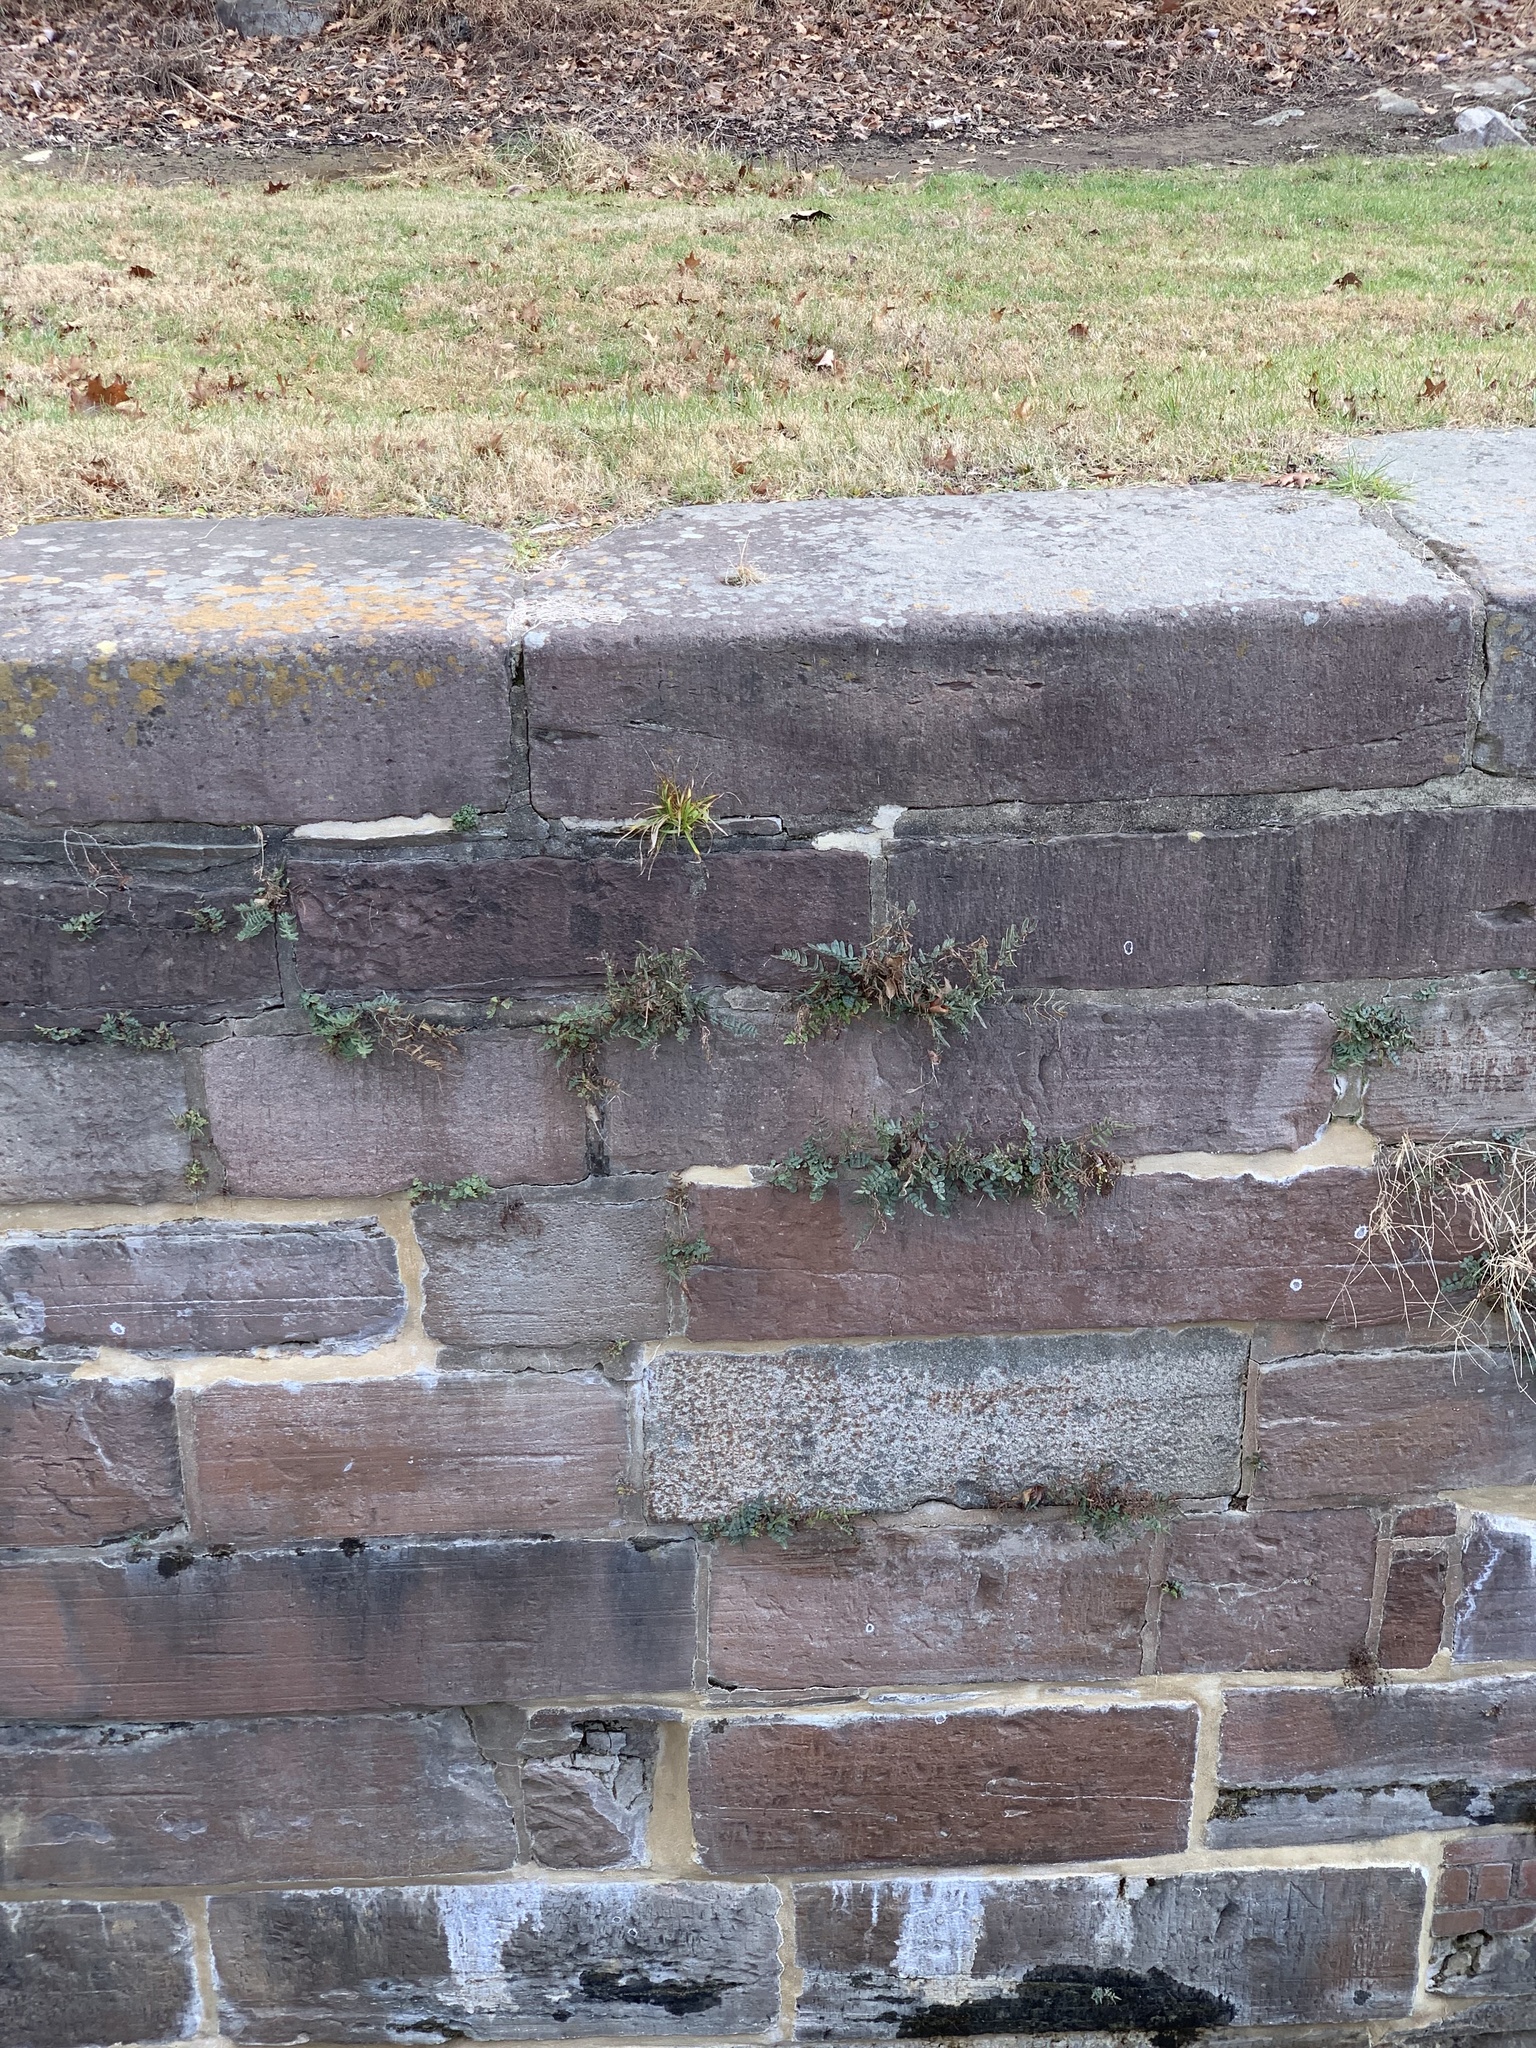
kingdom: Plantae
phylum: Tracheophyta
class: Polypodiopsida
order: Polypodiales
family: Pteridaceae
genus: Pellaea
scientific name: Pellaea atropurpurea
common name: Hairy cliffbrake
